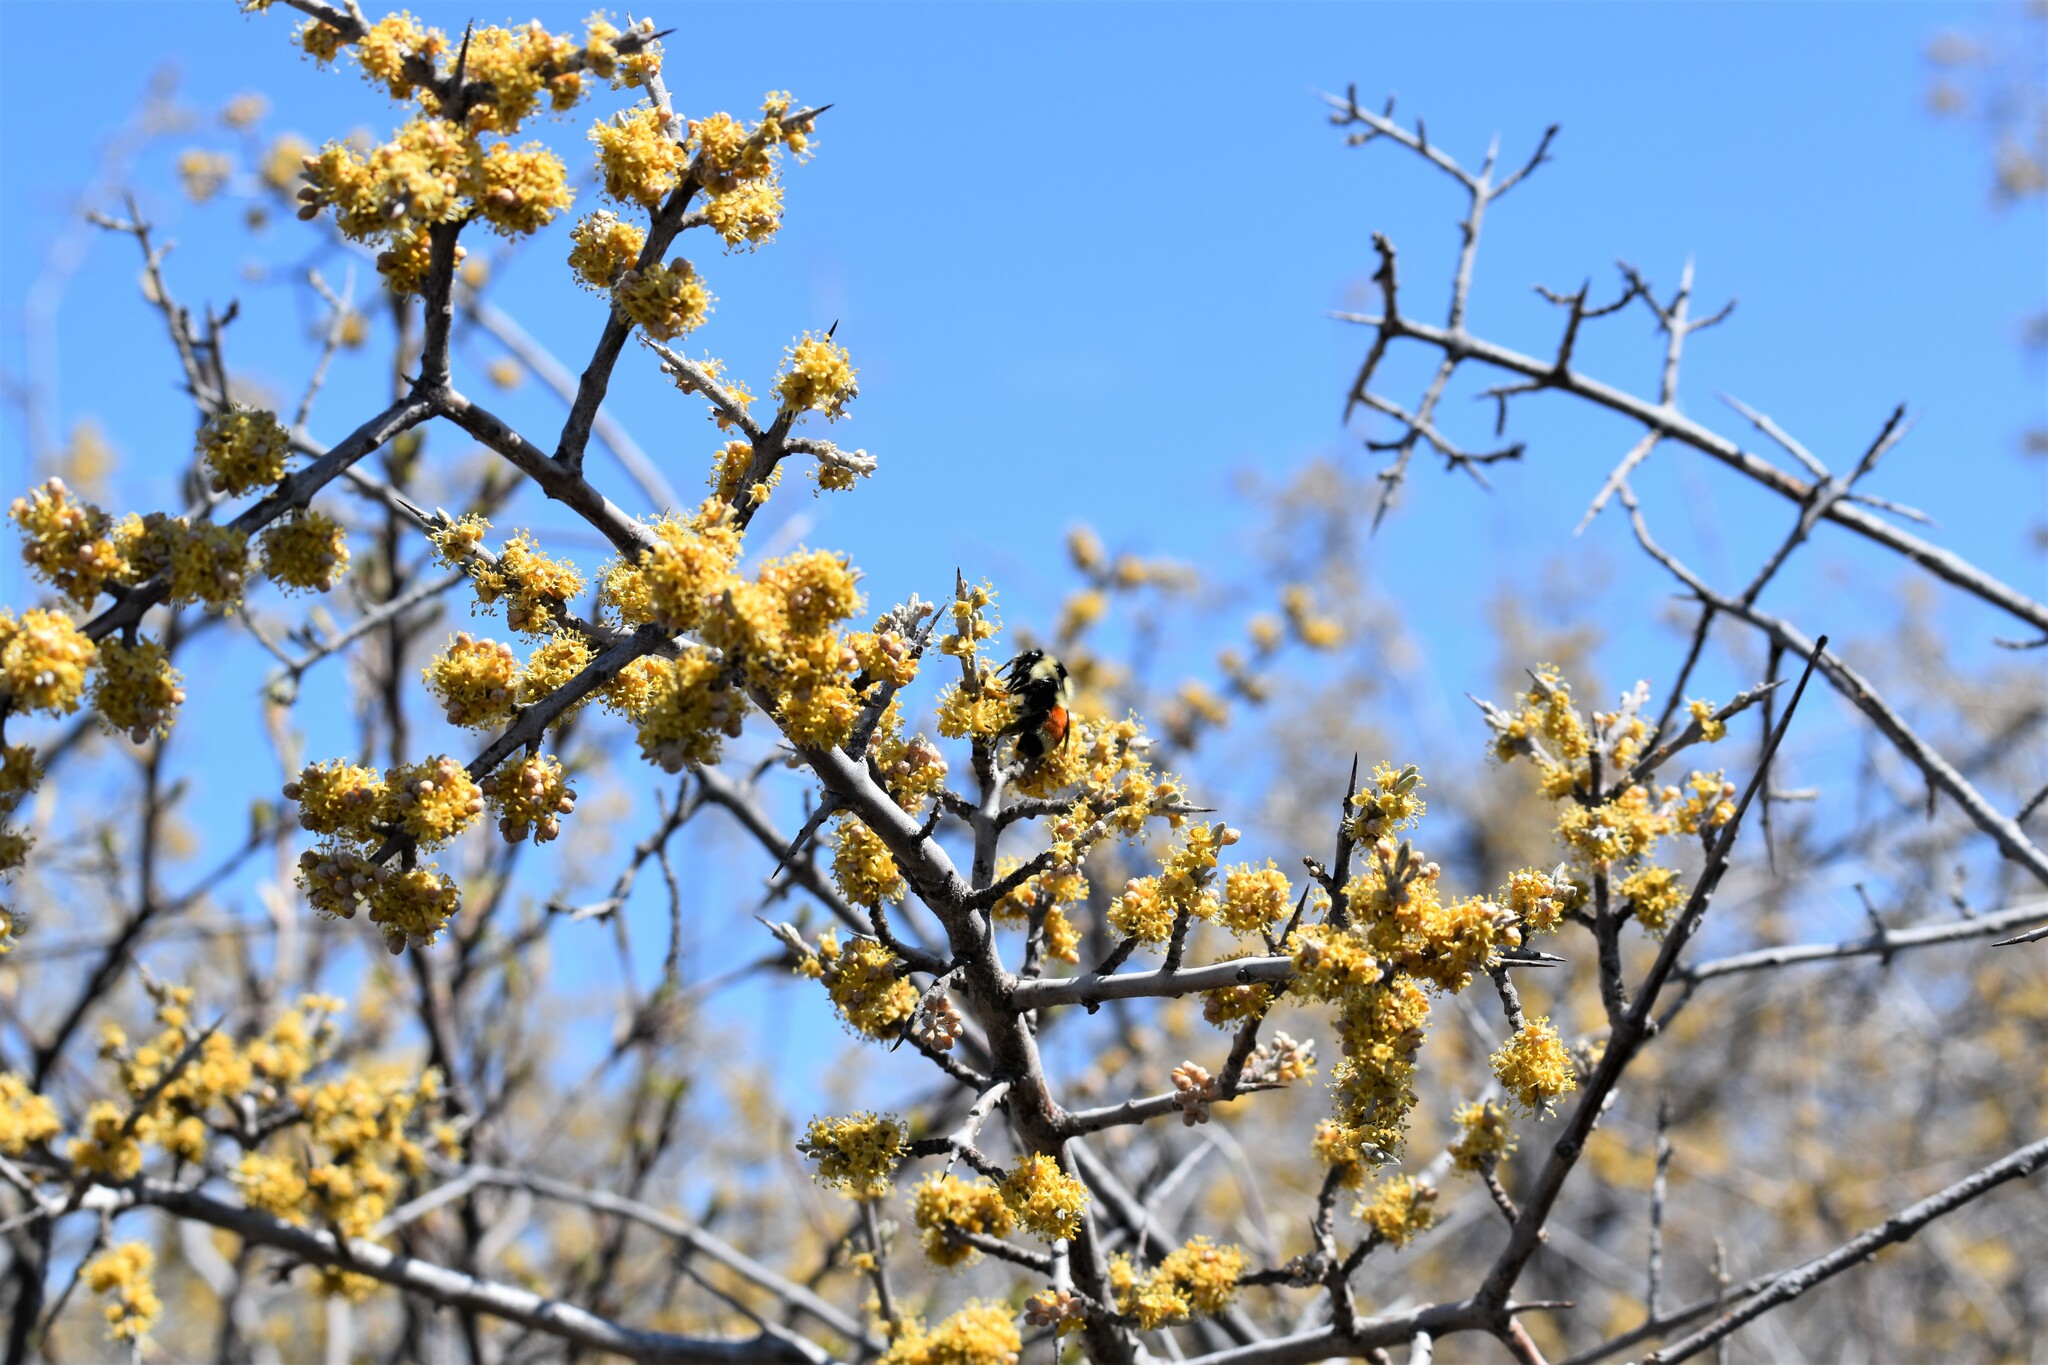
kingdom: Plantae
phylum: Tracheophyta
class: Magnoliopsida
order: Rosales
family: Elaeagnaceae
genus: Shepherdia
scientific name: Shepherdia argentea
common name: Silver buffaloberry
